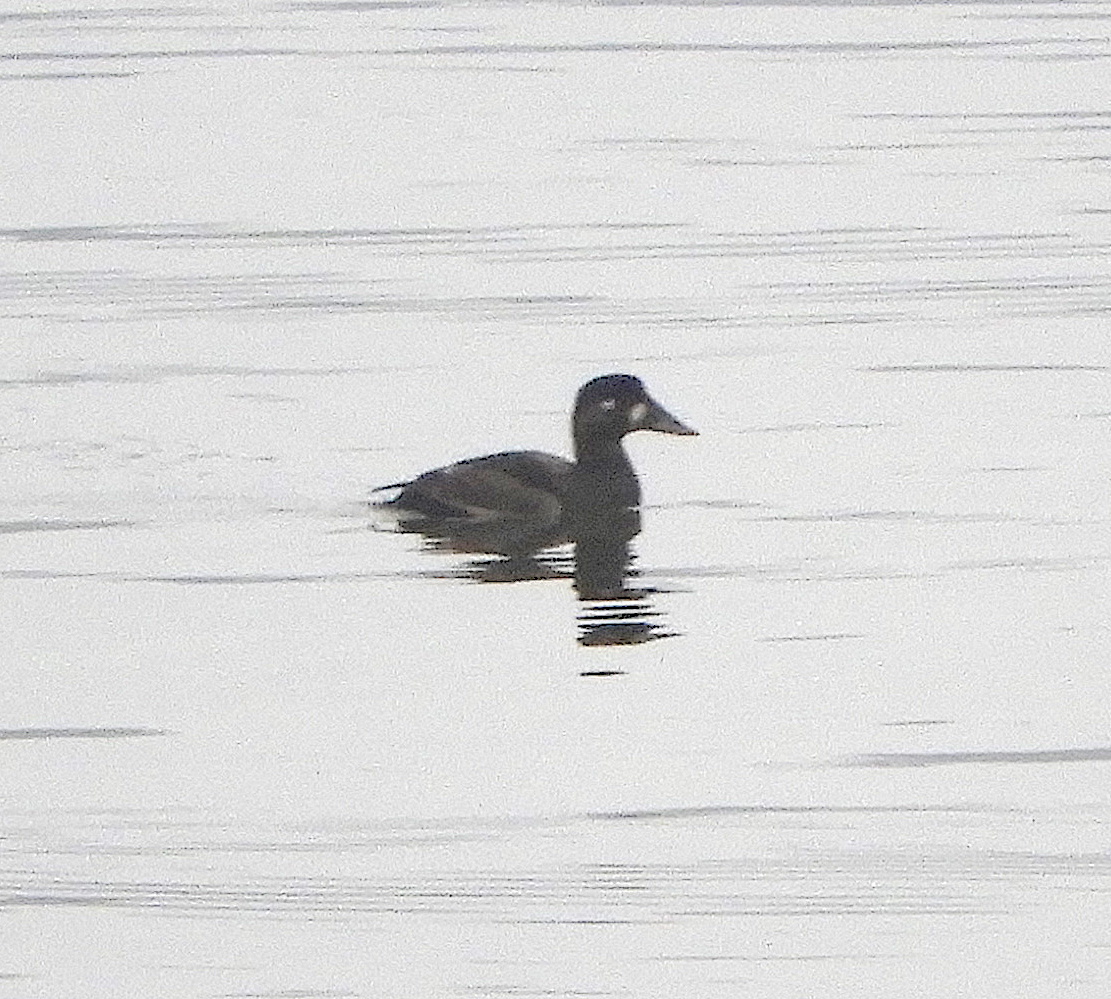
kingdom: Animalia
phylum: Chordata
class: Aves
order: Anseriformes
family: Anatidae
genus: Melanitta
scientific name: Melanitta perspicillata
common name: Surf scoter
